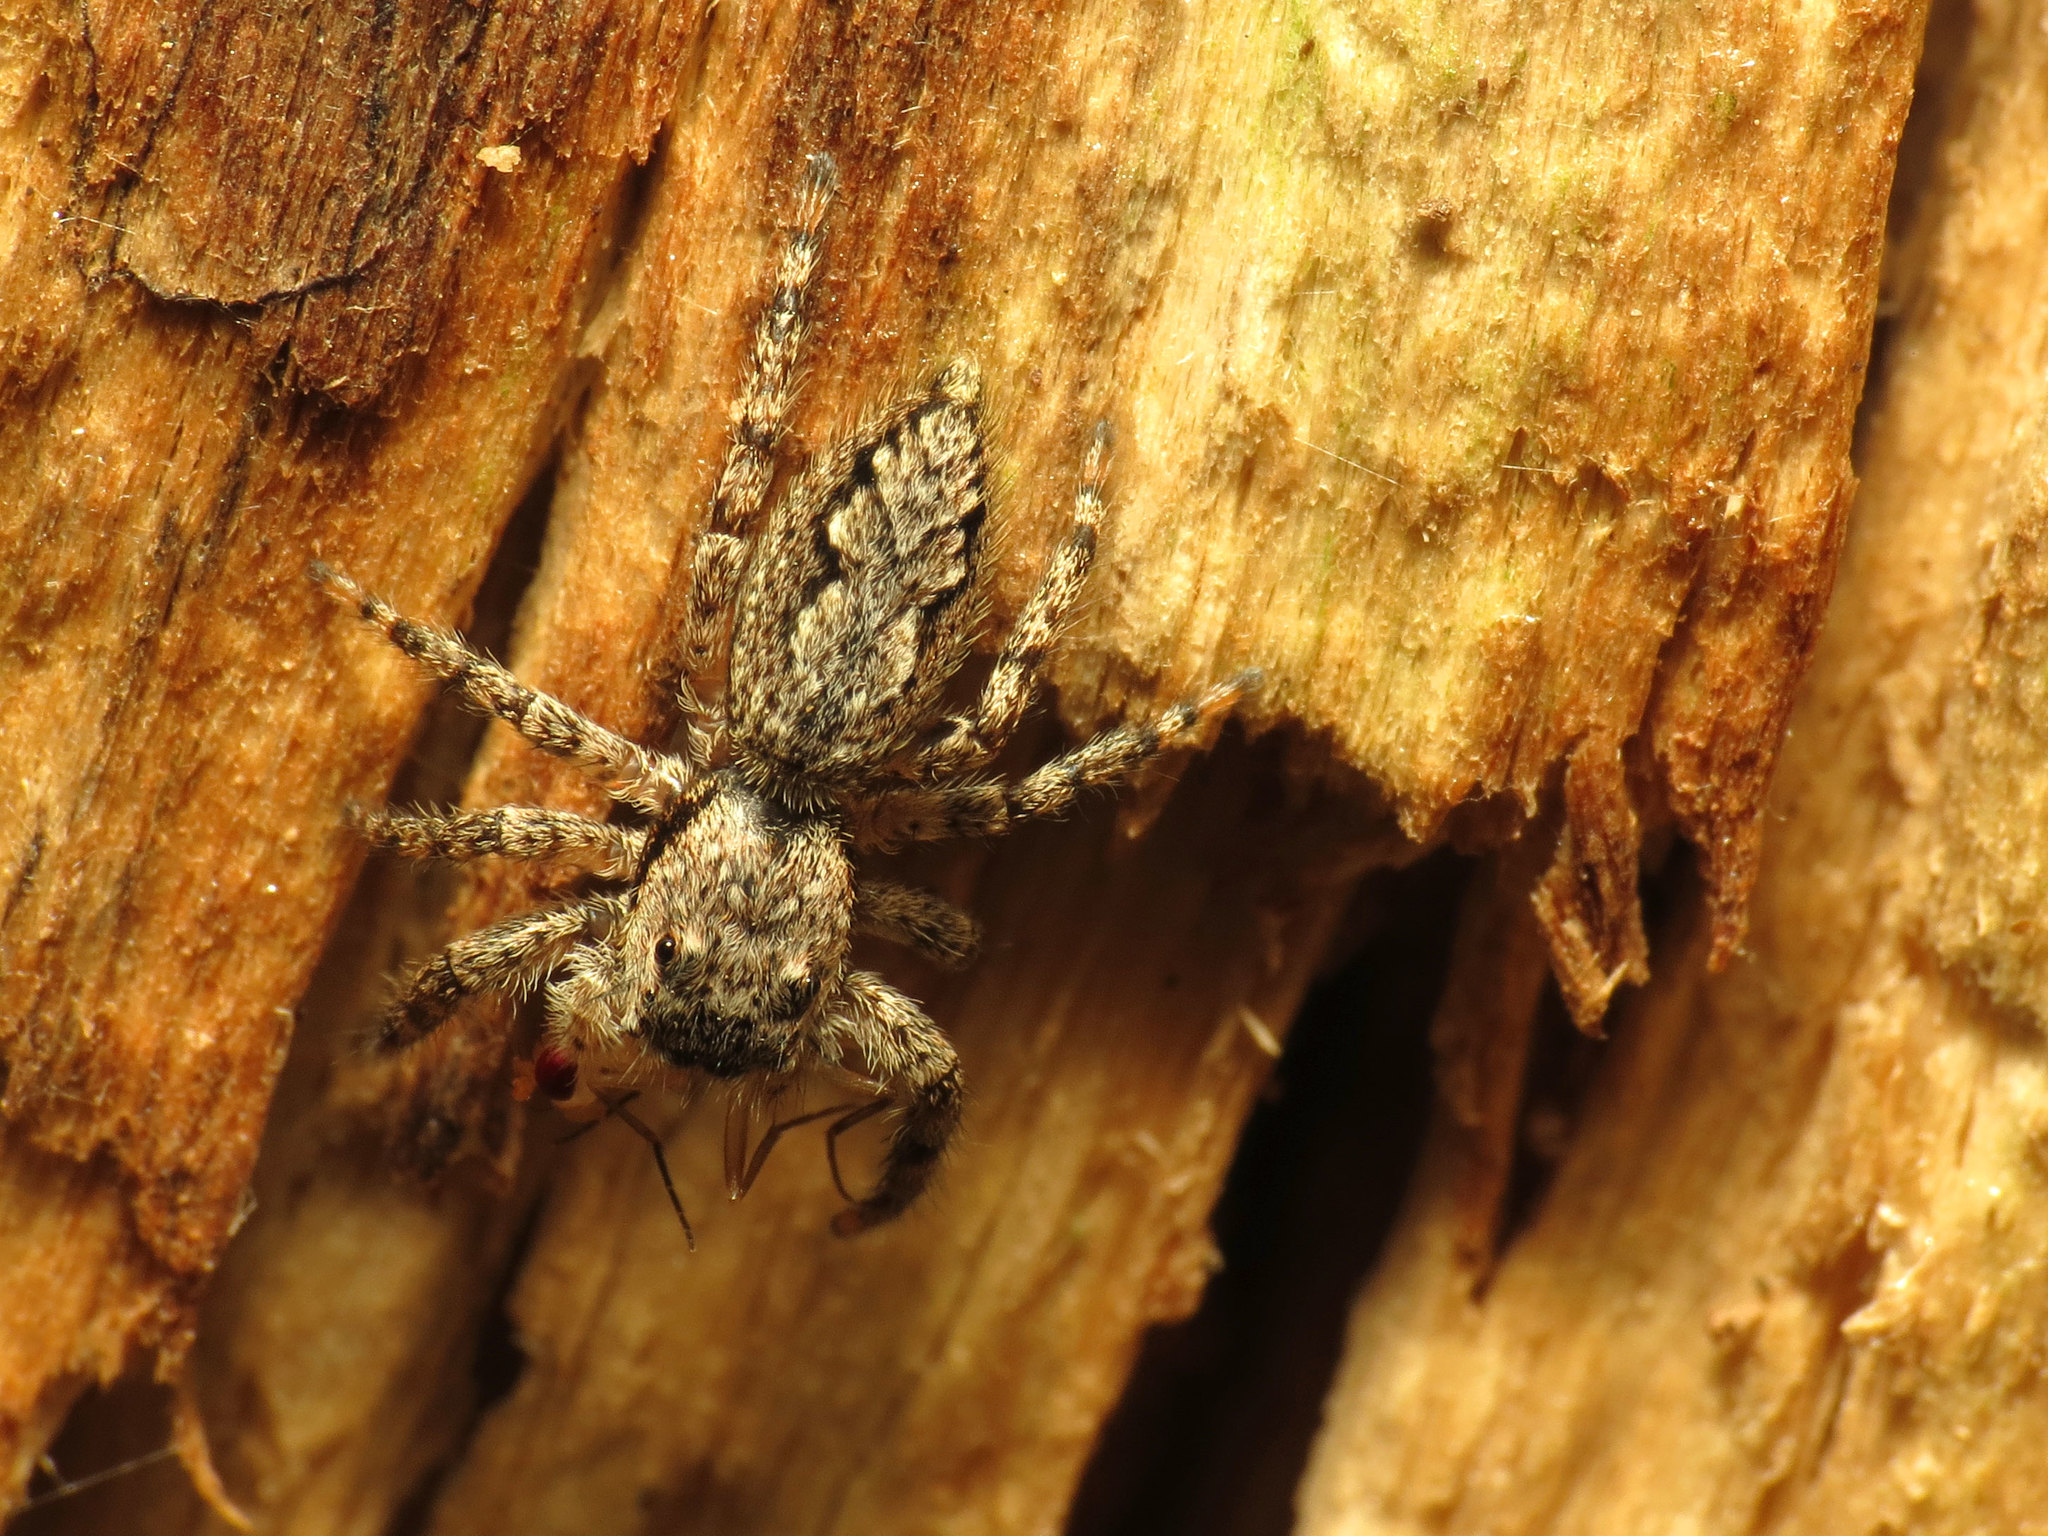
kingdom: Animalia
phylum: Arthropoda
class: Arachnida
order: Araneae
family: Salticidae
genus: Platycryptus
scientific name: Platycryptus undatus
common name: Tan jumping spider
